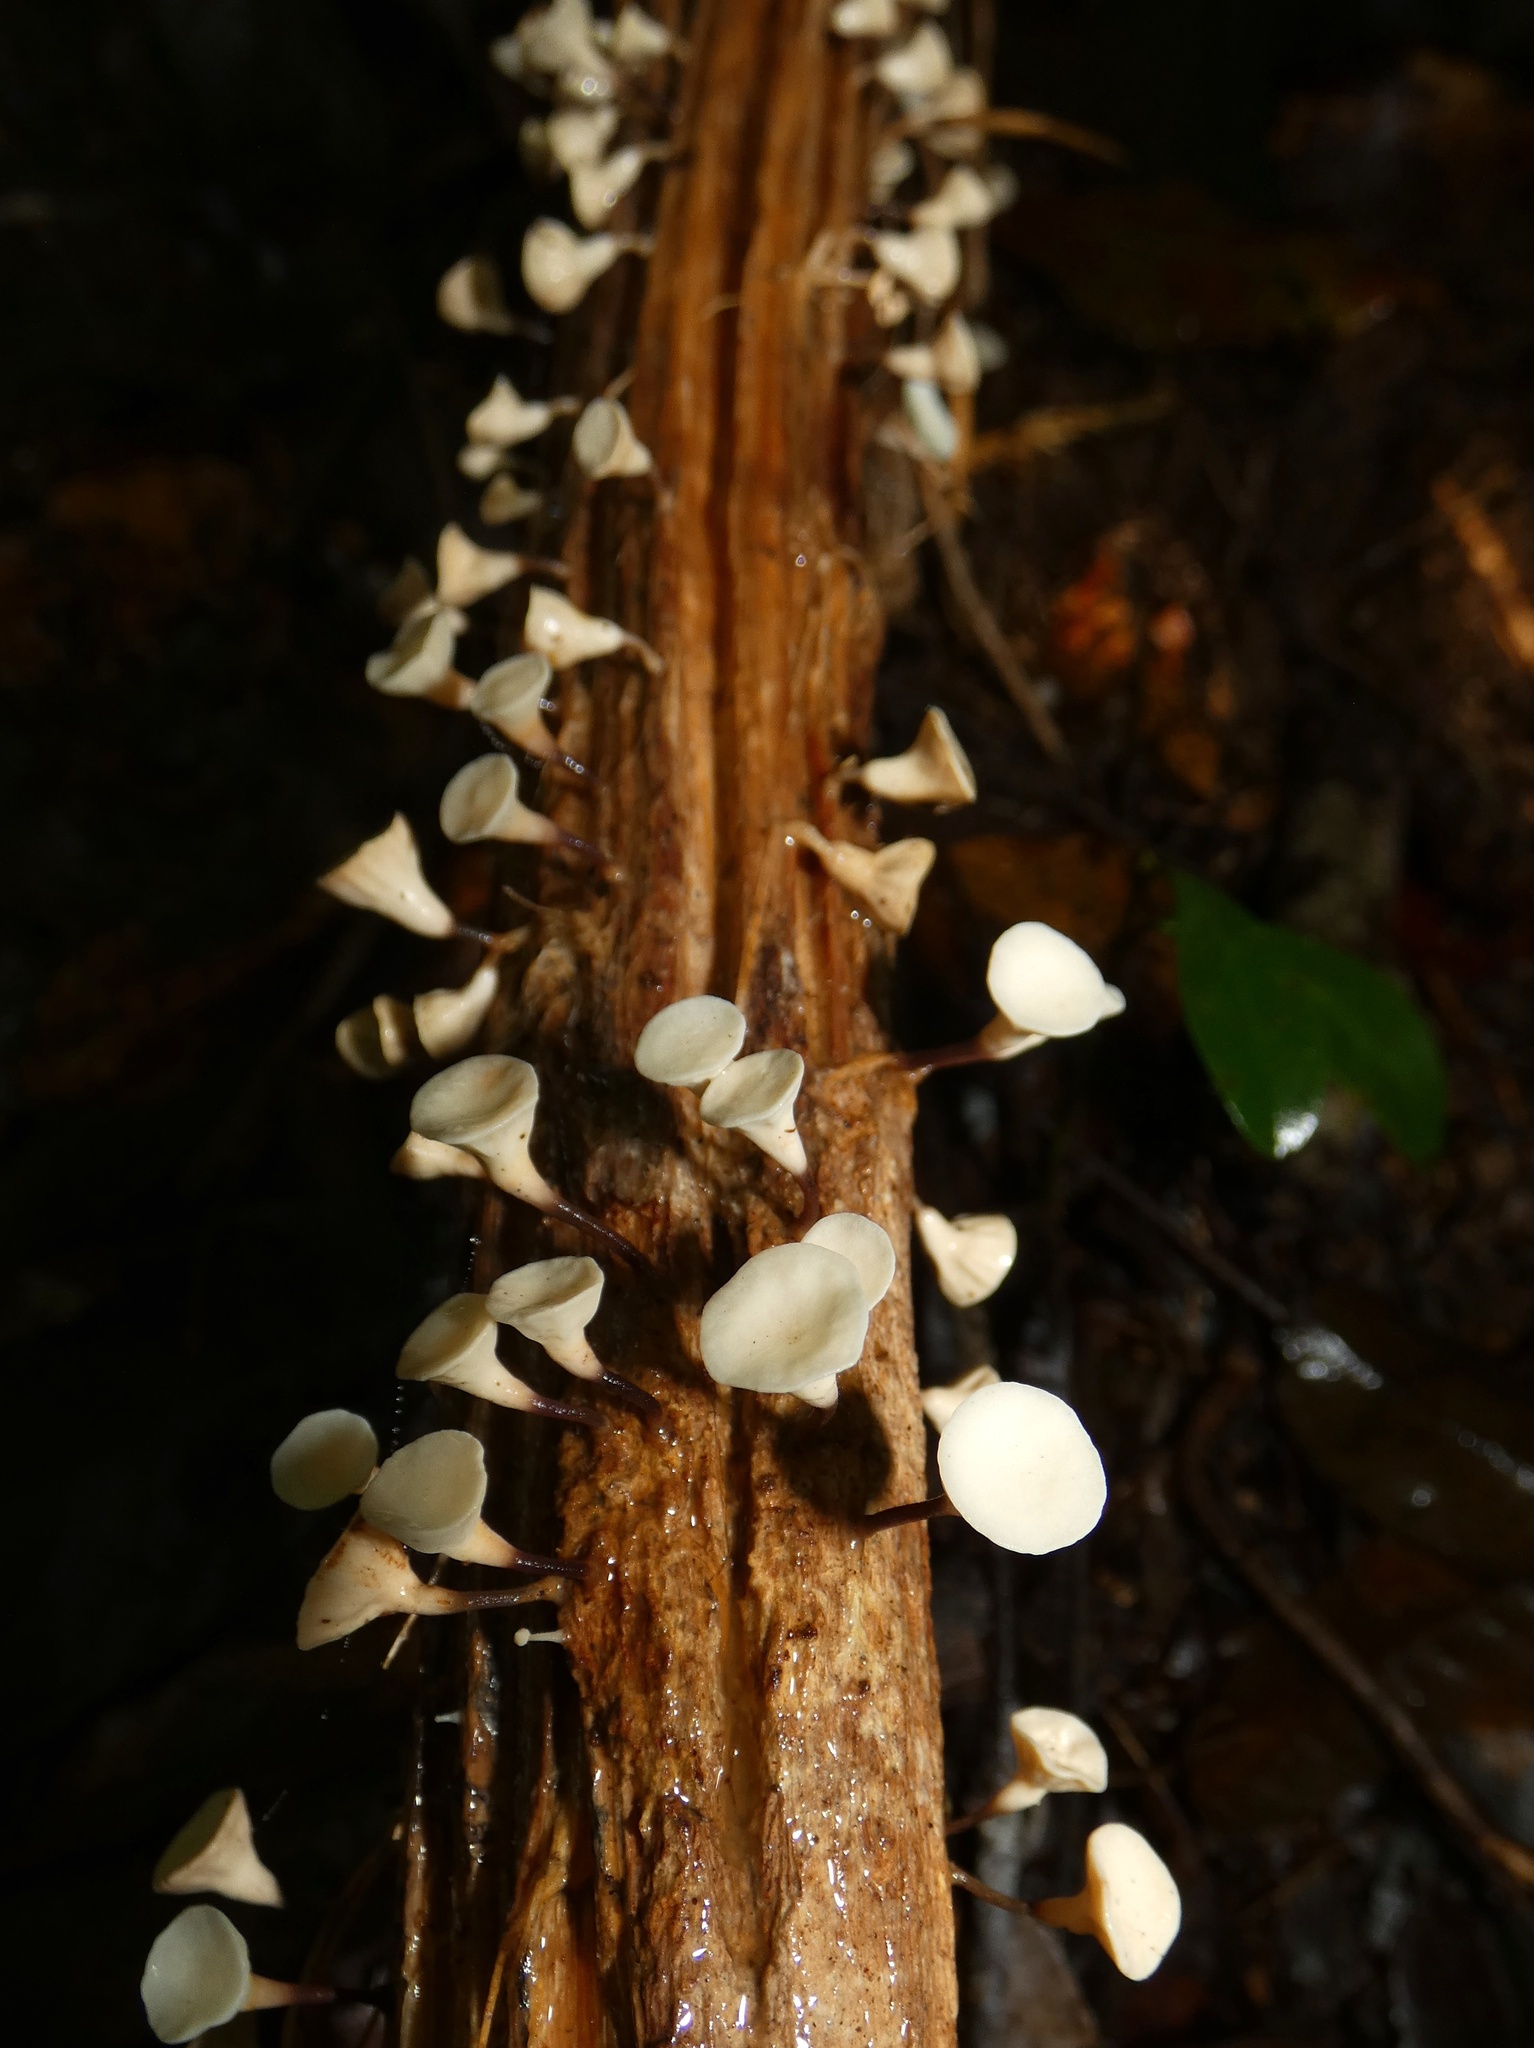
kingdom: Fungi
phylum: Basidiomycota
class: Agaricomycetes
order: Agaricales
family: Omphalotaceae
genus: Gymnopus
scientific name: Gymnopus montagnei
